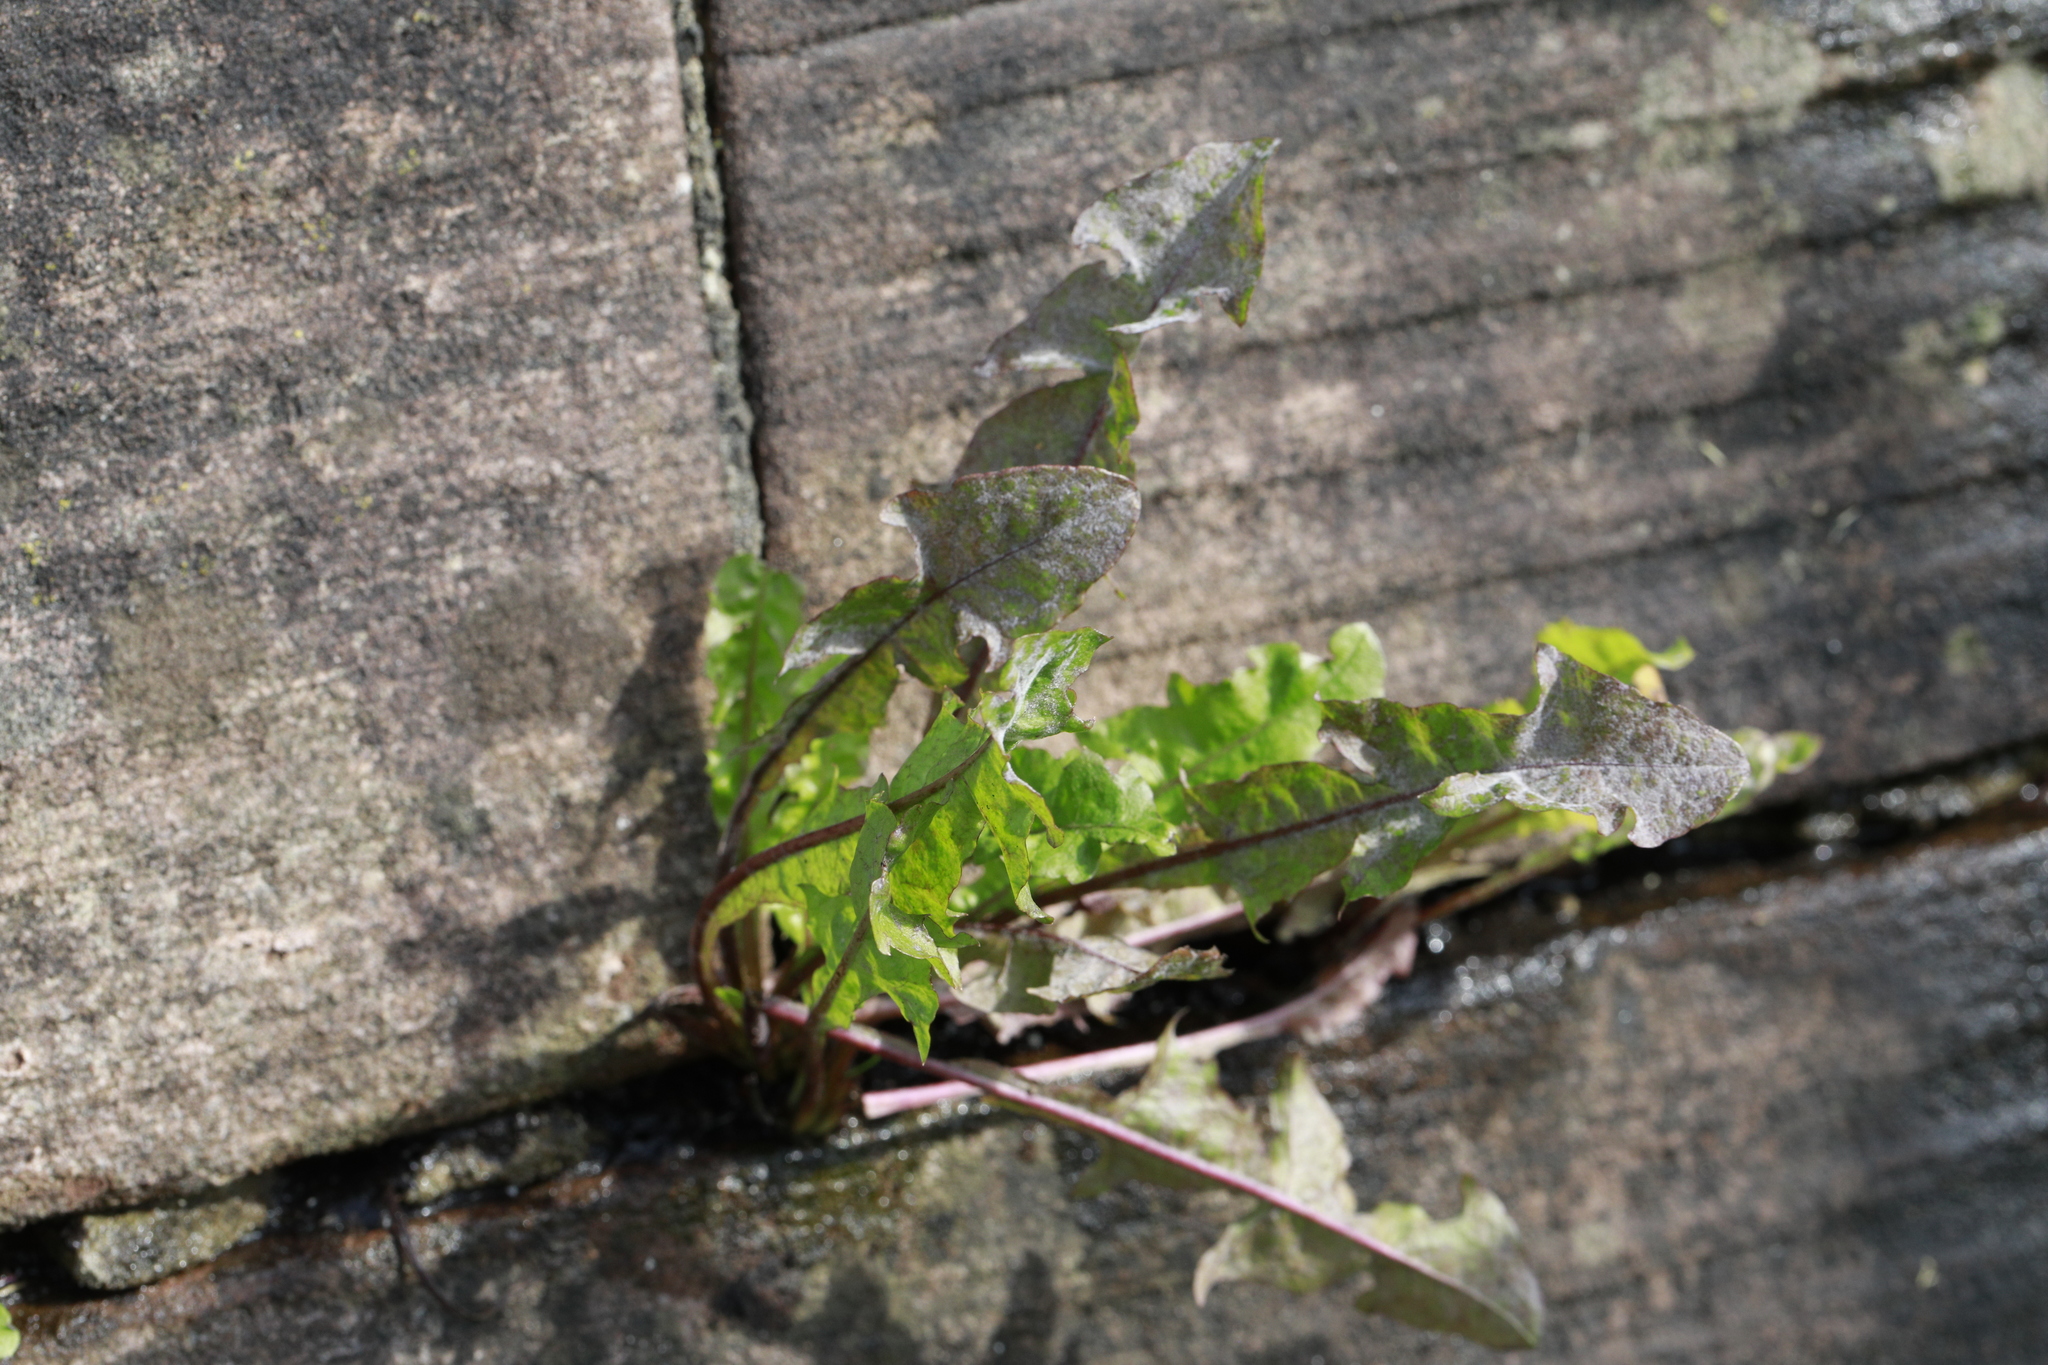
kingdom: Fungi
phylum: Ascomycota
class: Leotiomycetes
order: Helotiales
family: Erysiphaceae
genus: Podosphaera
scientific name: Podosphaera erigerontis-canadensis
